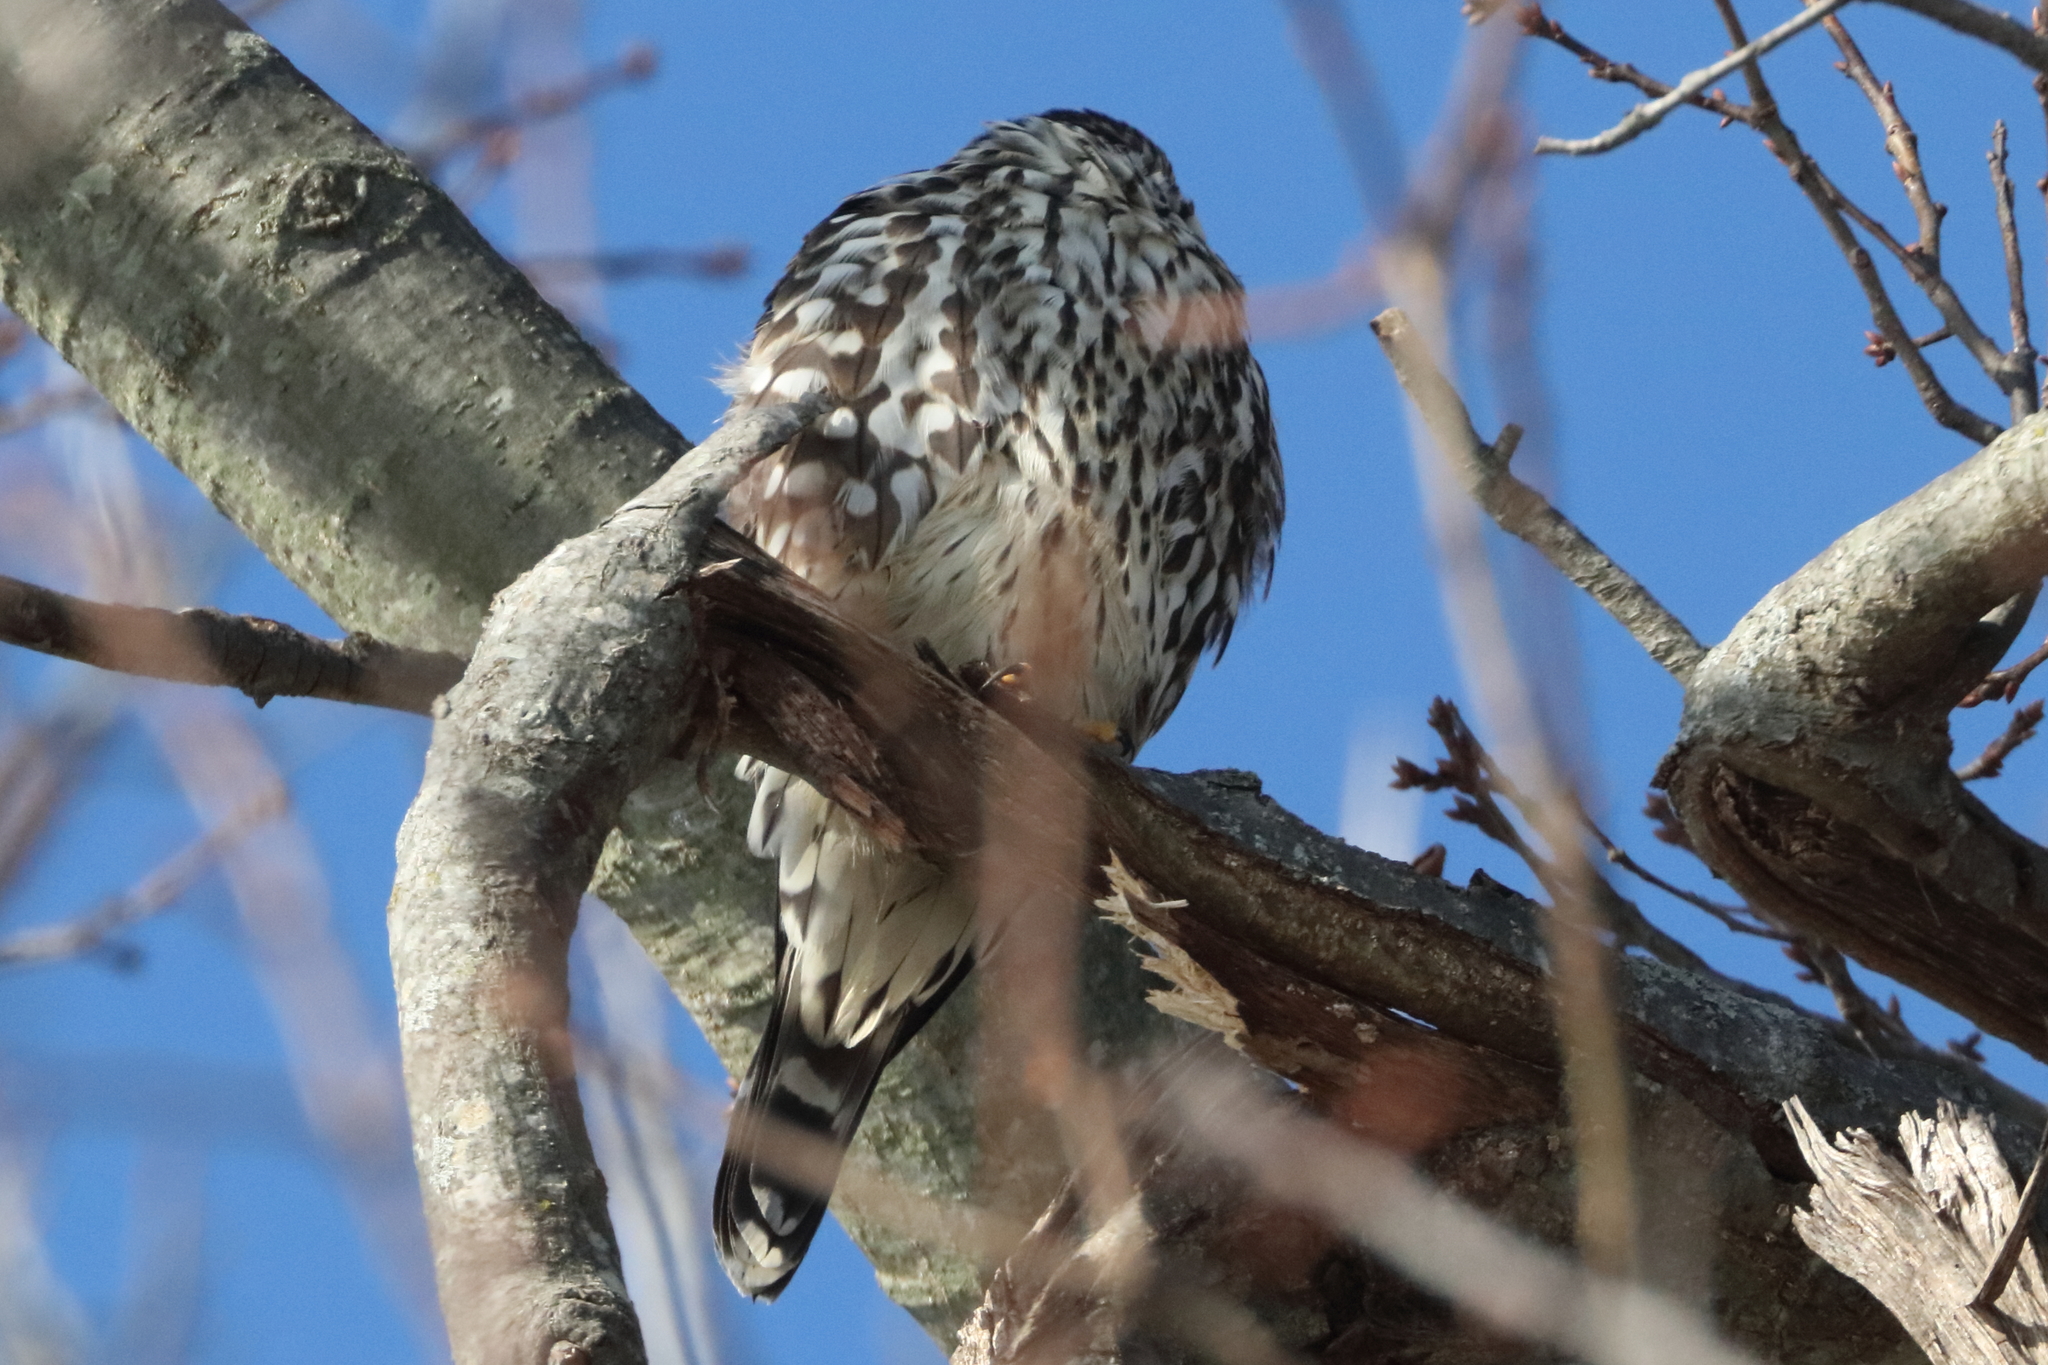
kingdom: Animalia
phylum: Chordata
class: Aves
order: Falconiformes
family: Falconidae
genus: Falco
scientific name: Falco columbarius
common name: Merlin
